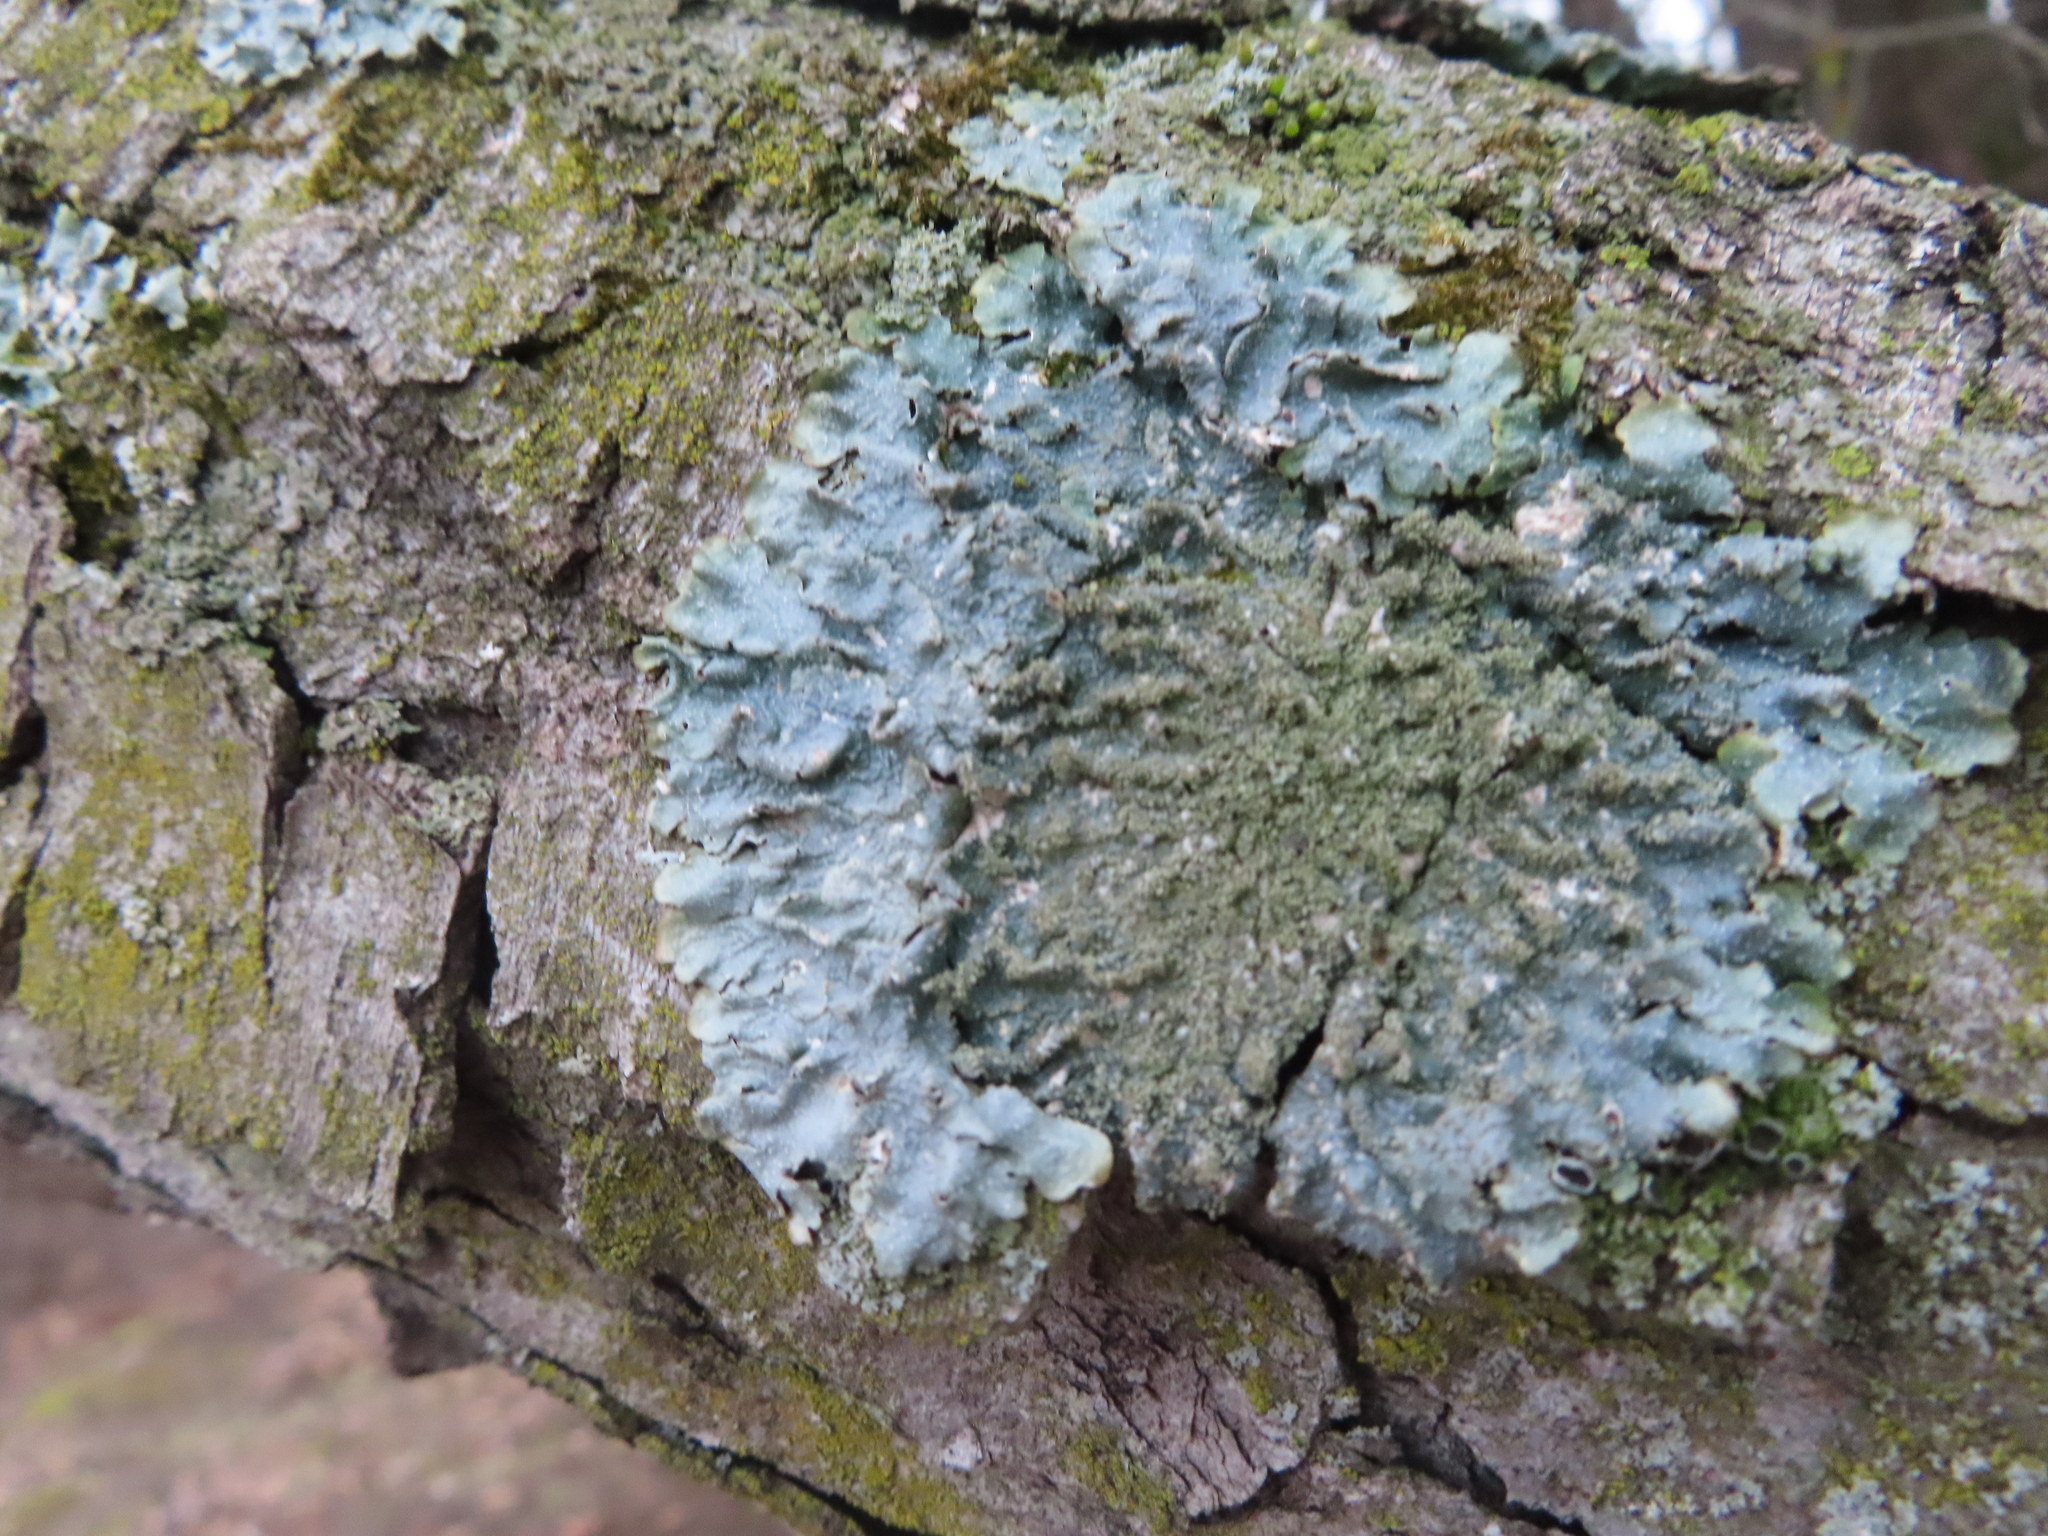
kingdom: Fungi
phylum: Ascomycota
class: Lecanoromycetes
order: Lecanorales
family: Parmeliaceae
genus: Punctelia
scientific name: Punctelia rudecta
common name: Rough speckled shield lichen
